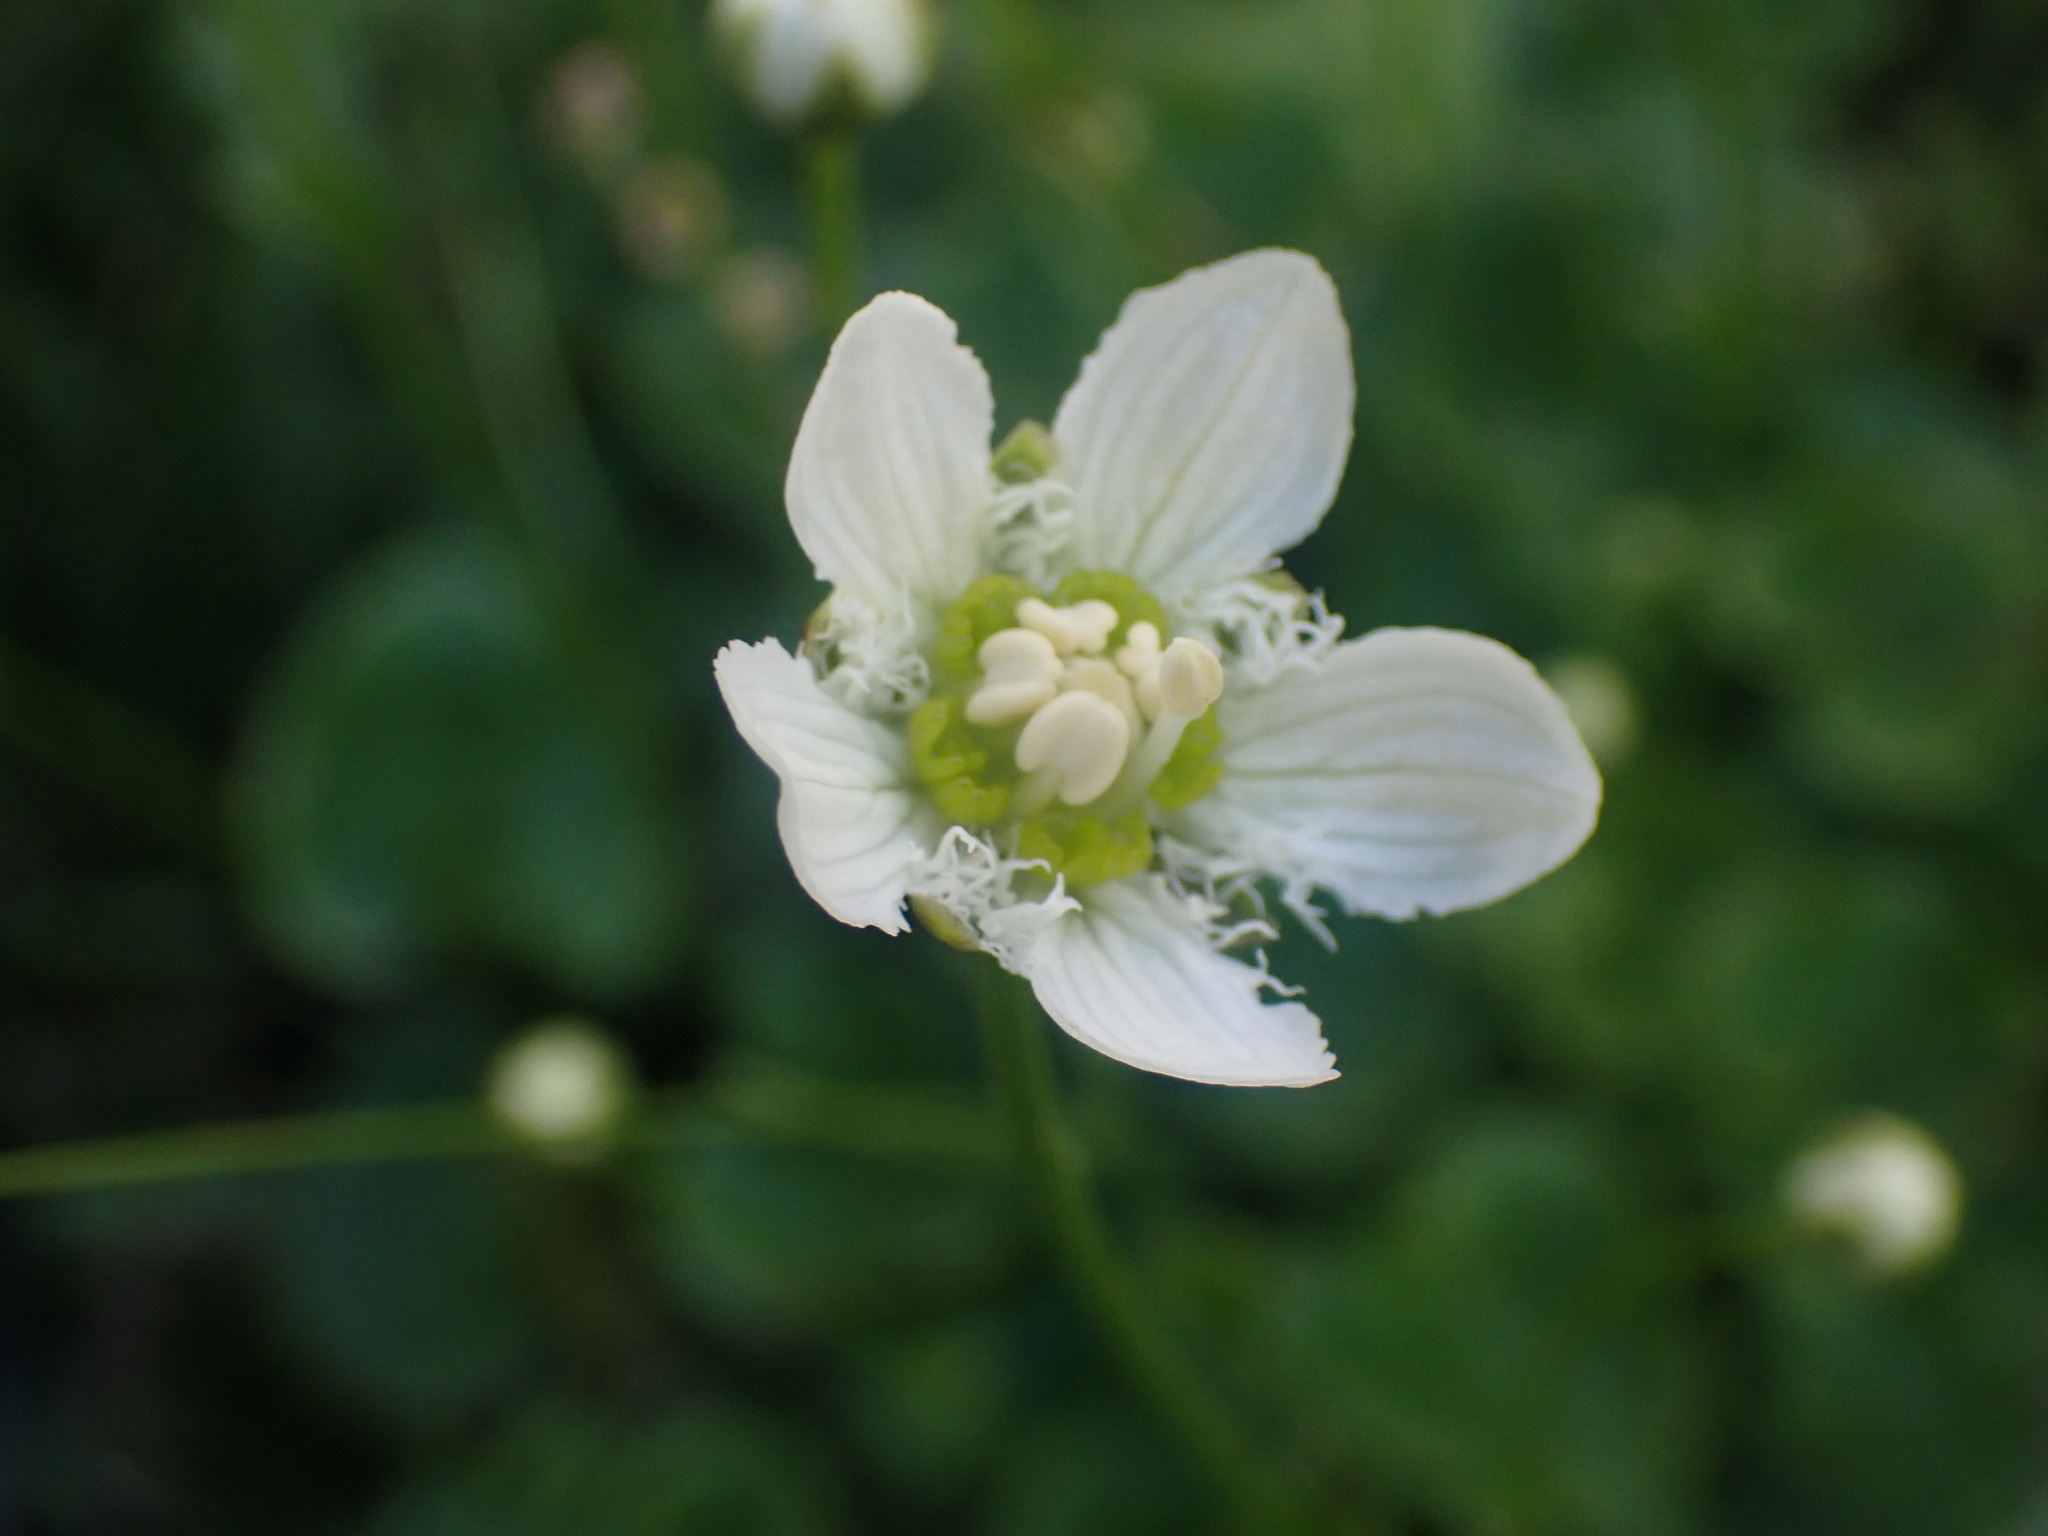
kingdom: Plantae
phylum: Tracheophyta
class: Magnoliopsida
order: Celastrales
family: Parnassiaceae
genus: Parnassia
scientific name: Parnassia fimbriata
